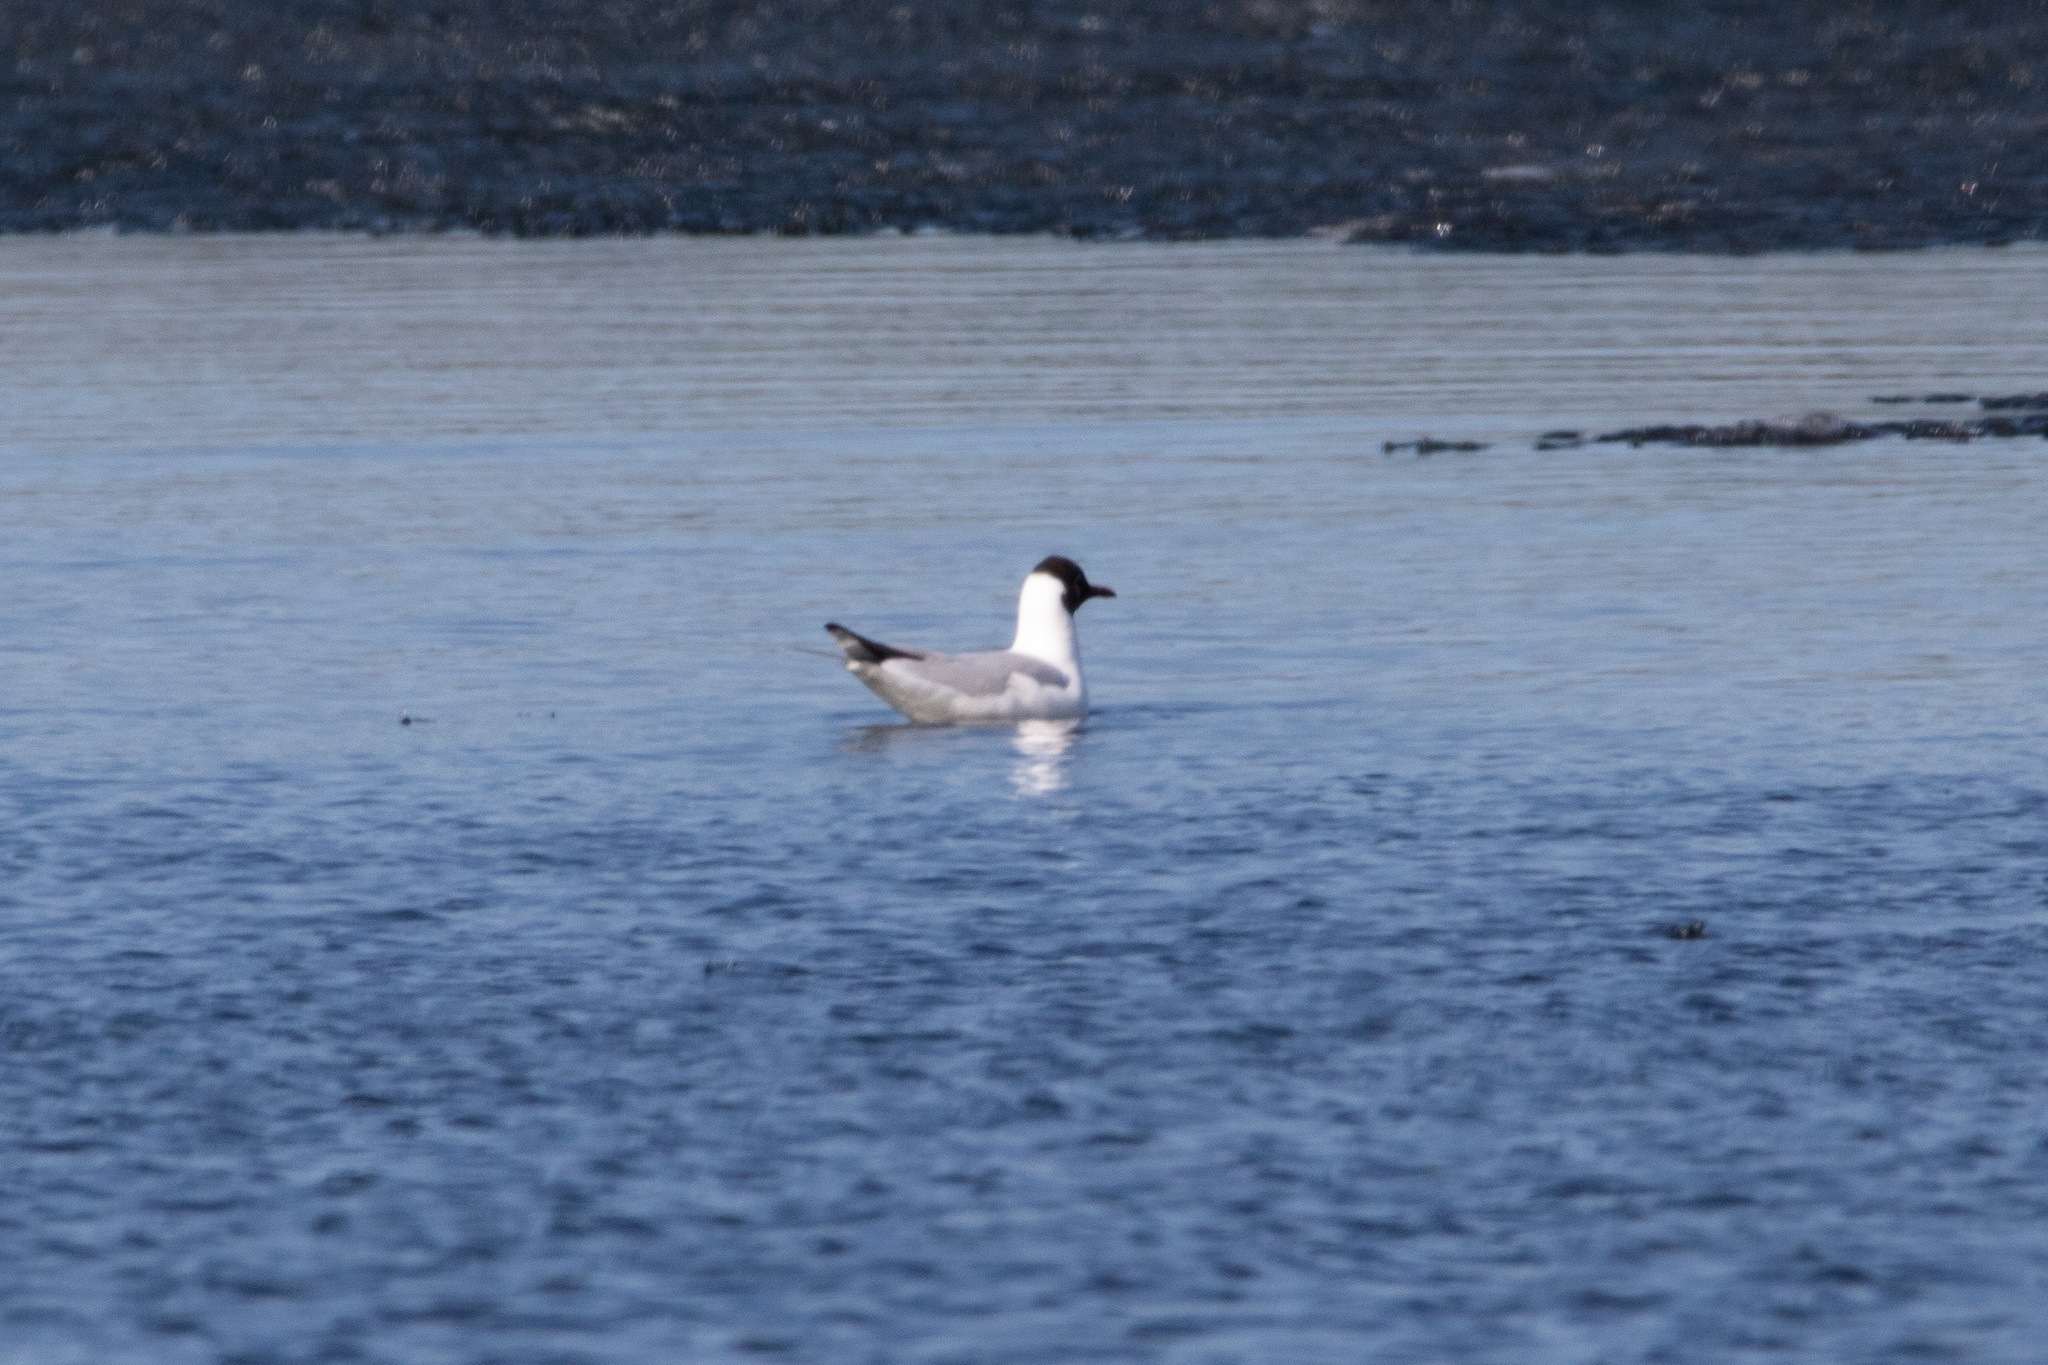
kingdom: Animalia
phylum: Chordata
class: Aves
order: Charadriiformes
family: Laridae
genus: Chroicocephalus
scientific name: Chroicocephalus ridibundus
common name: Black-headed gull
